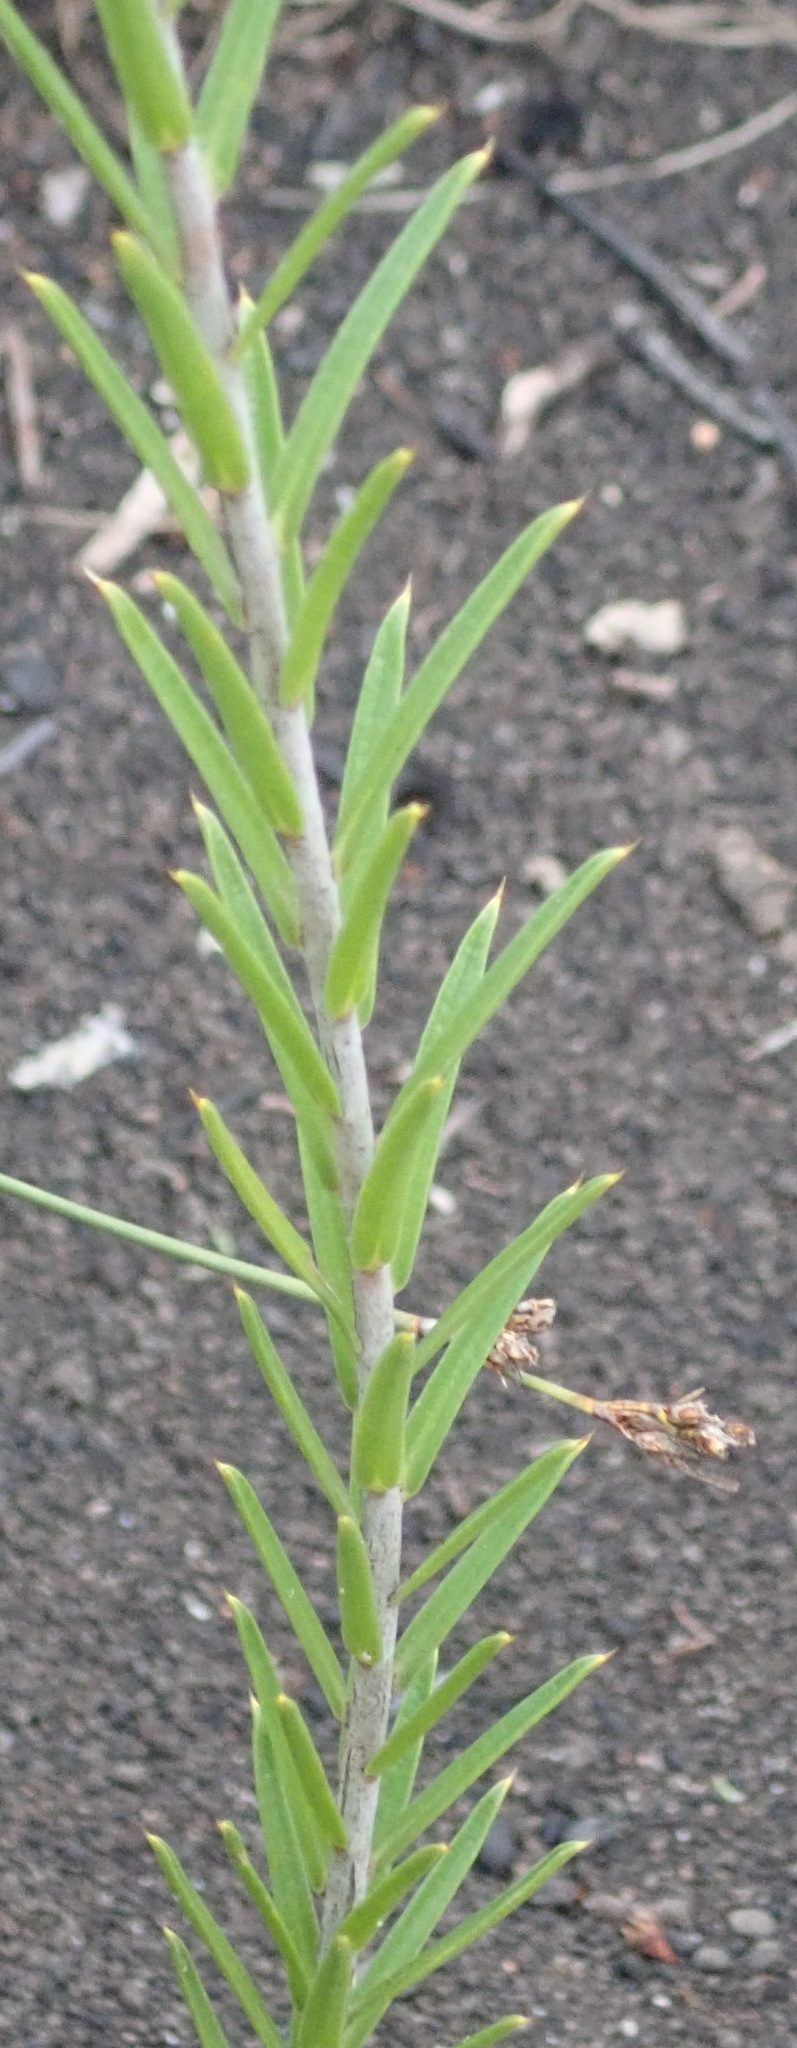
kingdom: Plantae
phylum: Tracheophyta
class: Magnoliopsida
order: Sapindales
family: Rutaceae
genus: Diosma
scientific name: Diosma aristata
